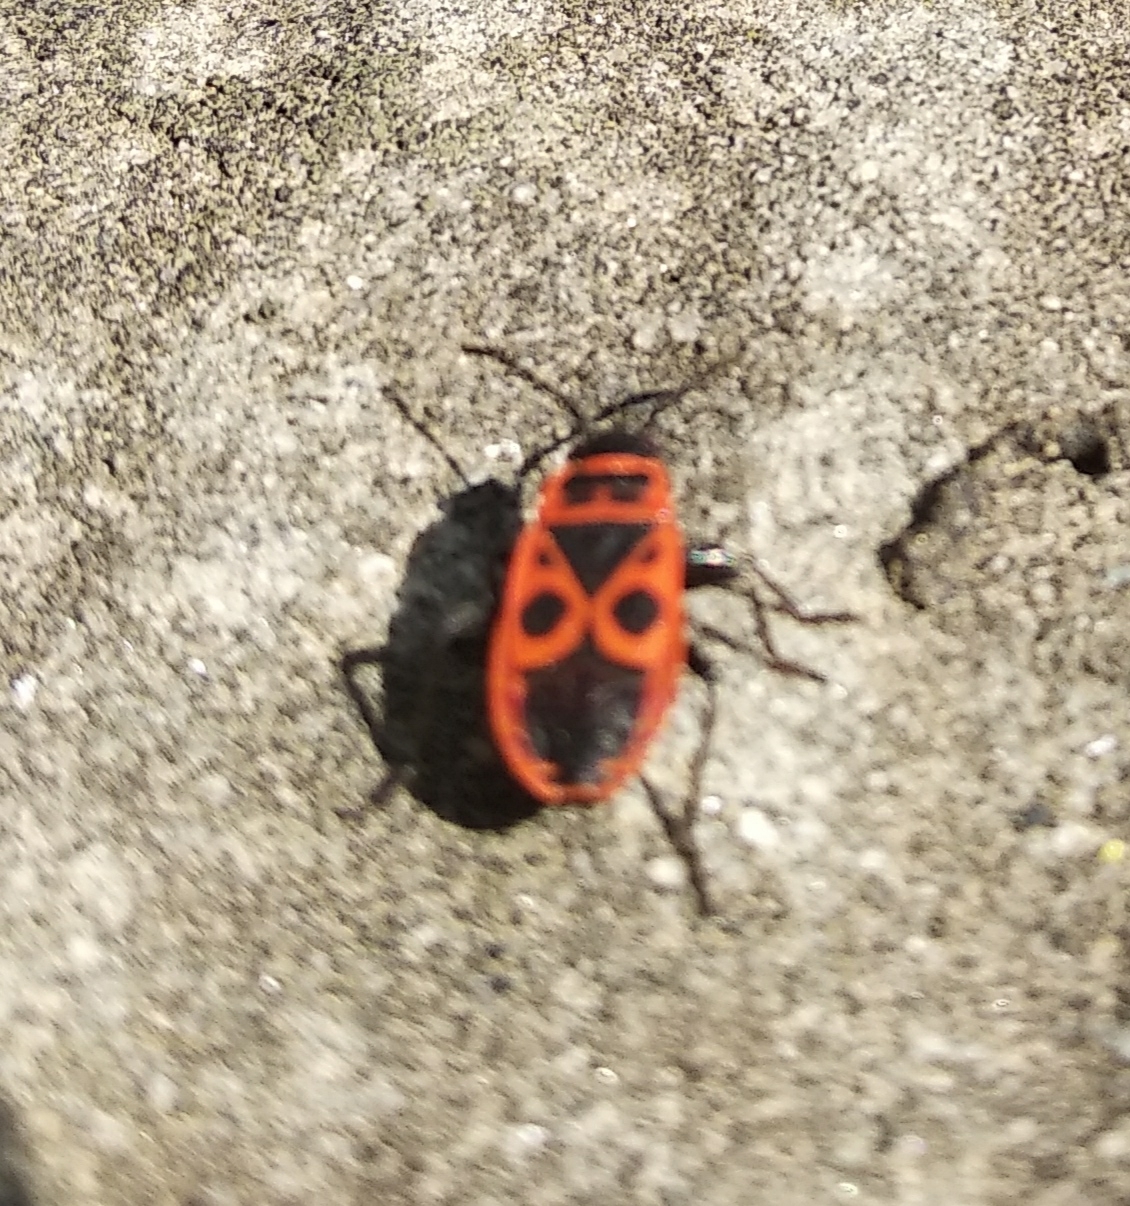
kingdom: Animalia
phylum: Arthropoda
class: Insecta
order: Hemiptera
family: Pyrrhocoridae
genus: Pyrrhocoris
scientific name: Pyrrhocoris apterus
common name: Firebug
